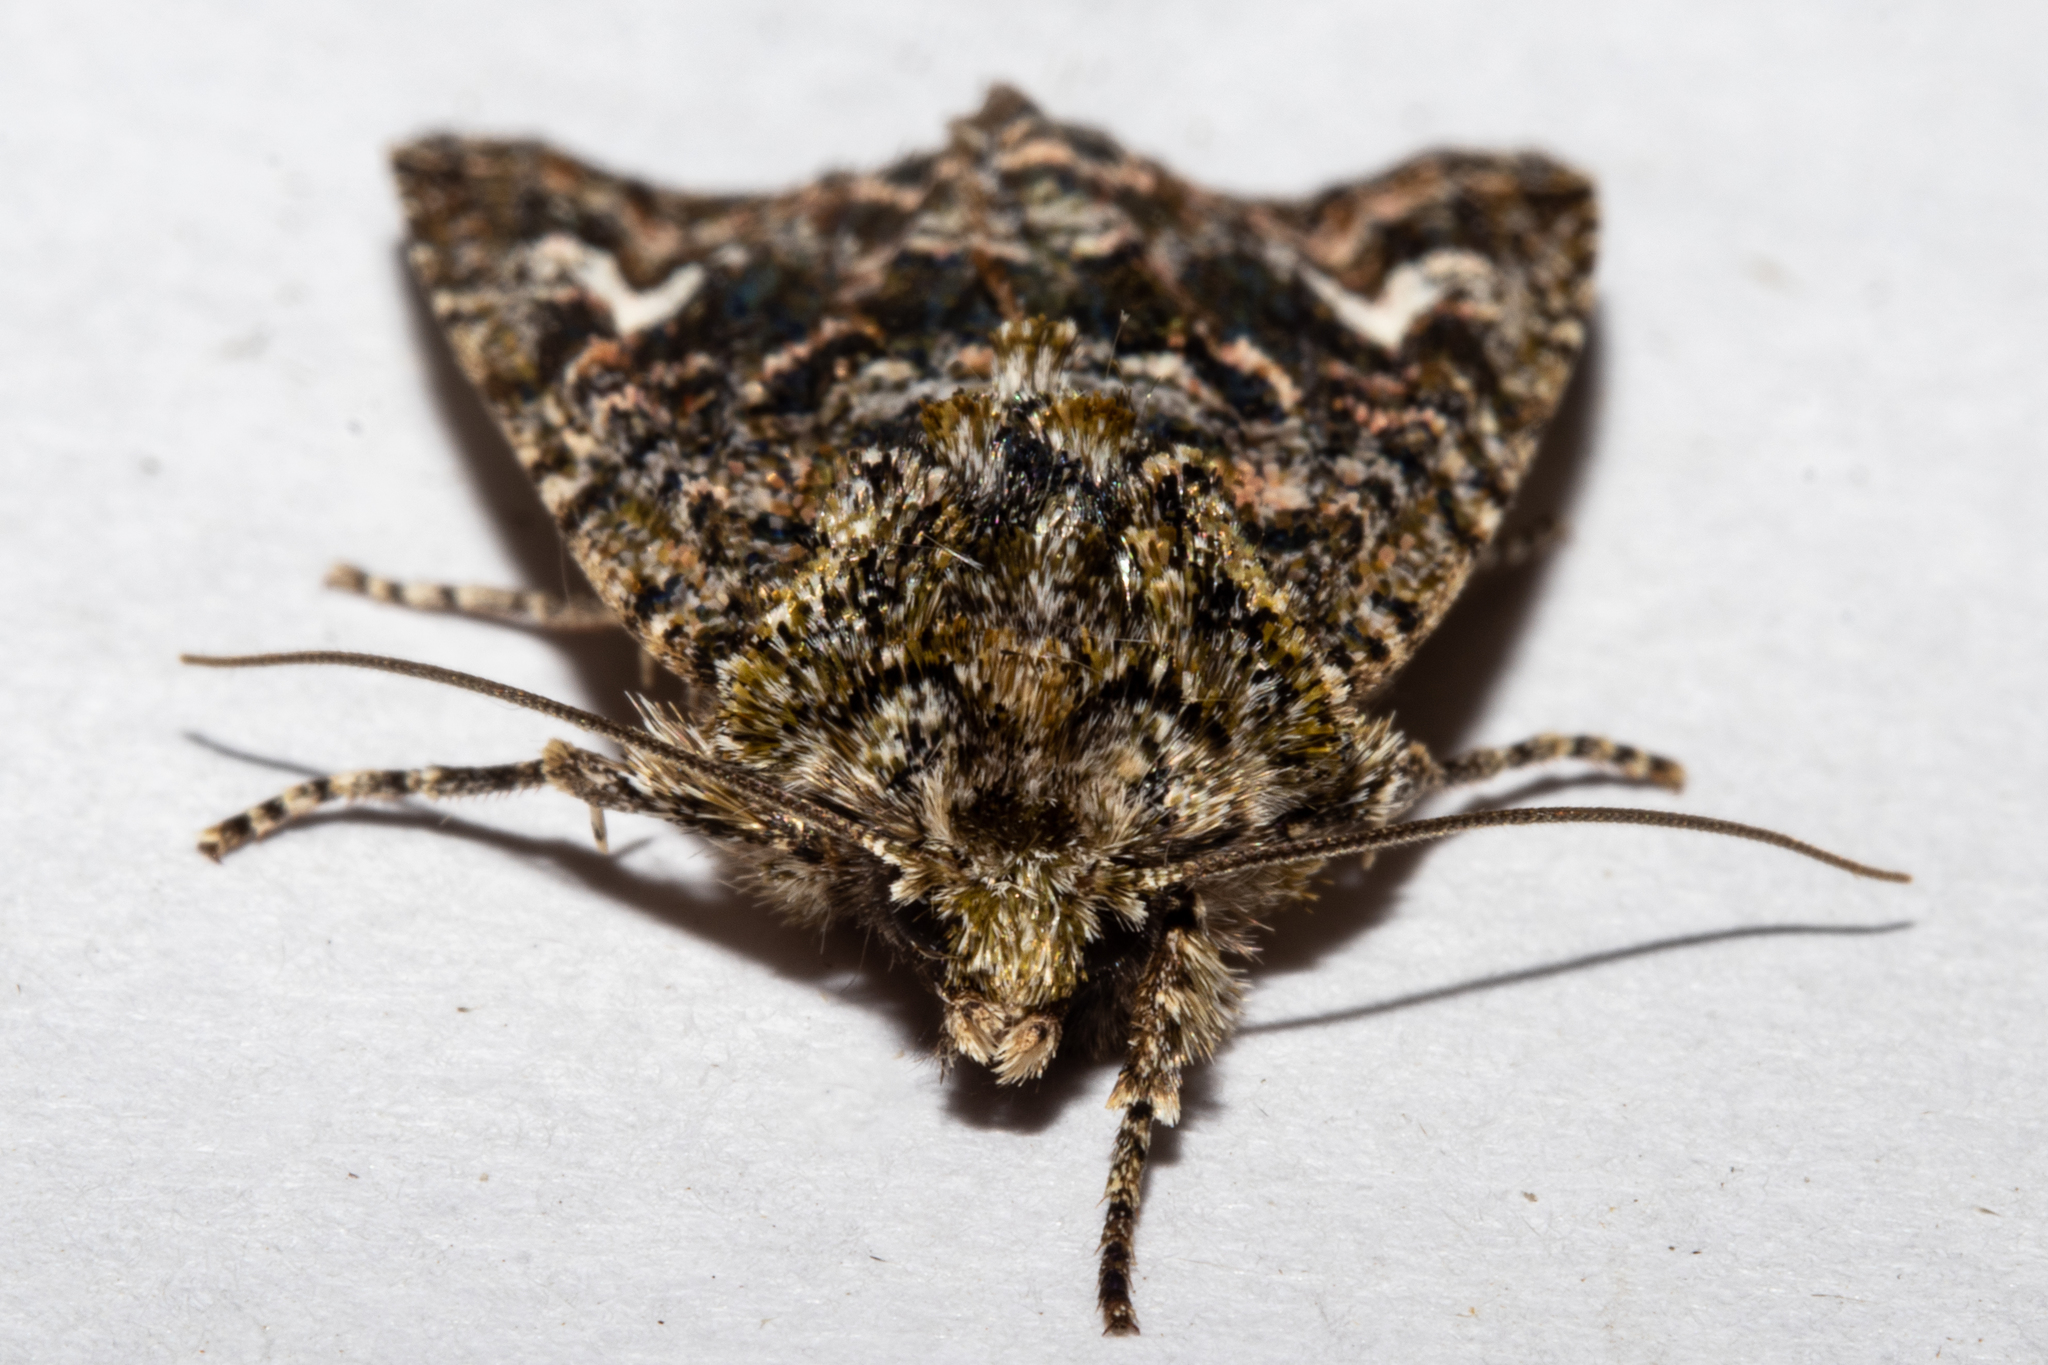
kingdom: Animalia
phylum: Arthropoda
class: Insecta
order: Lepidoptera
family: Noctuidae
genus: Ichneutica
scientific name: Ichneutica
